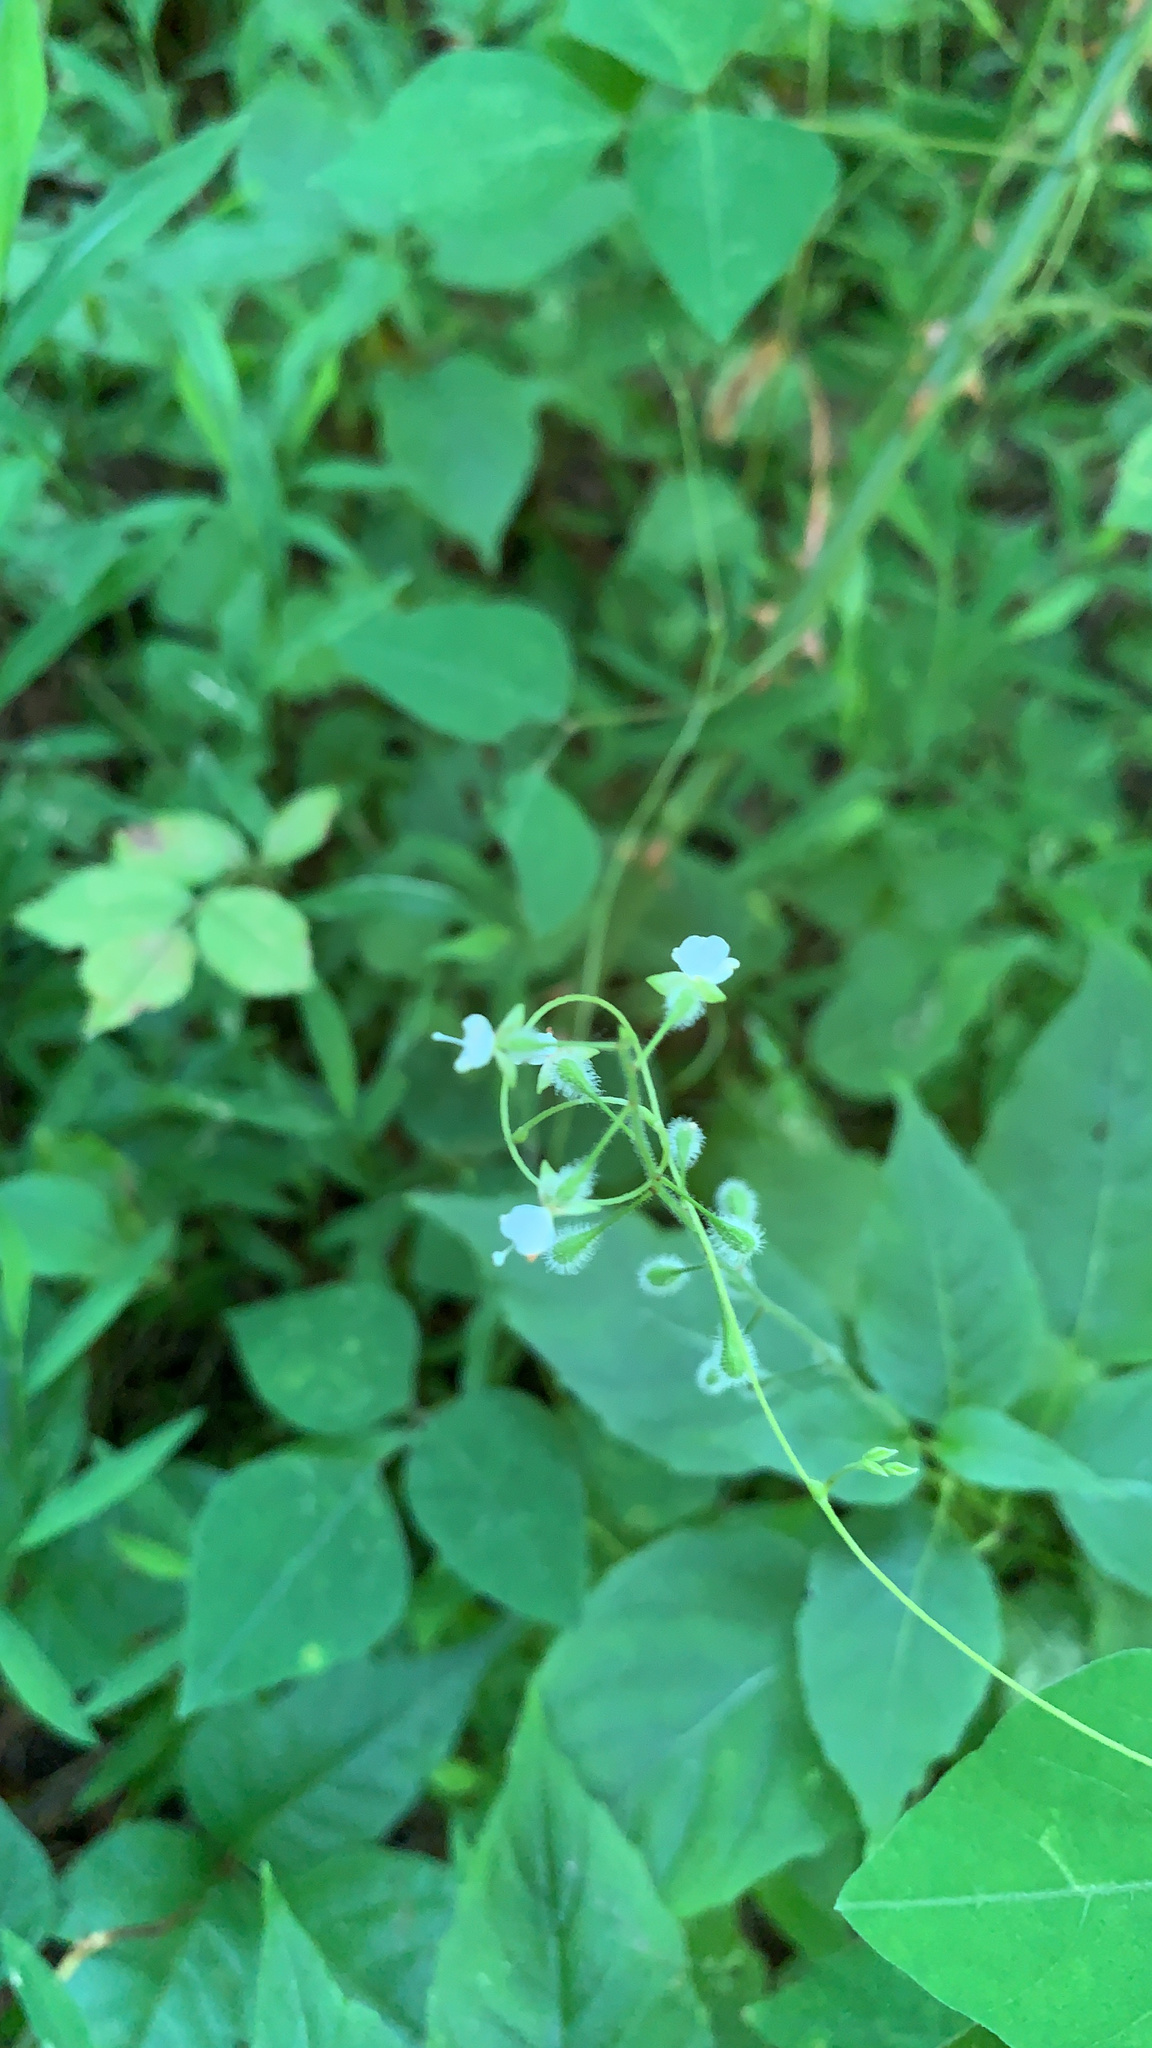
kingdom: Plantae
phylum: Tracheophyta
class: Magnoliopsida
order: Myrtales
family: Onagraceae
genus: Circaea
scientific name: Circaea canadensis
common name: Broad-leaved enchanter's nightshade
